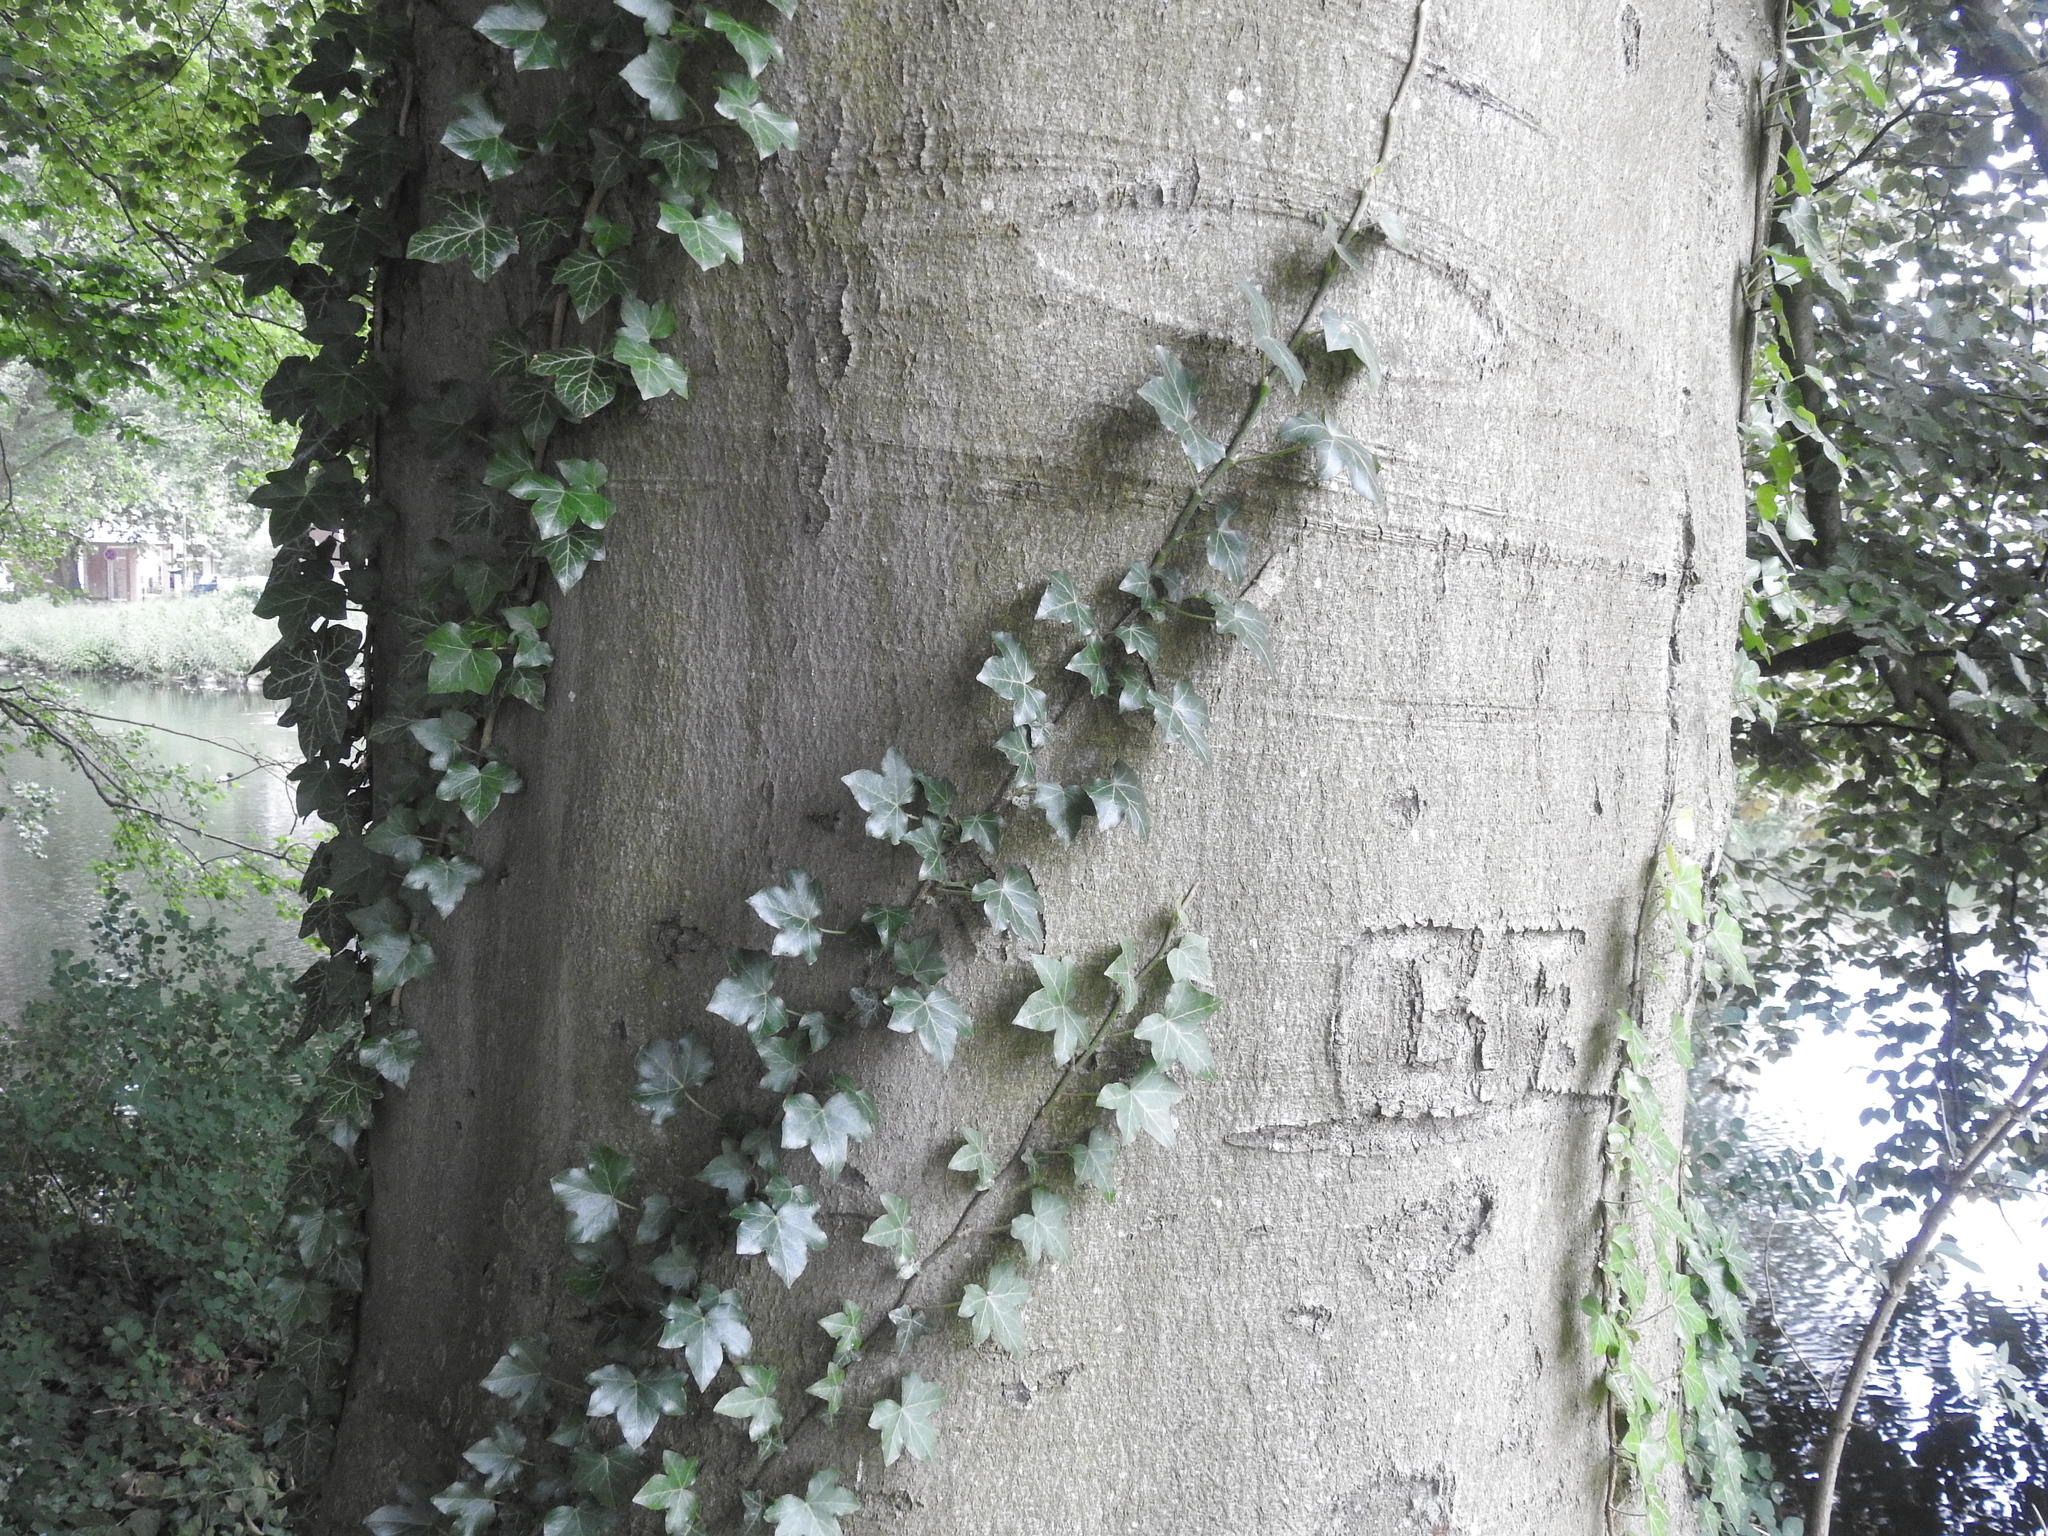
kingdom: Plantae
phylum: Tracheophyta
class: Magnoliopsida
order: Apiales
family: Araliaceae
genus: Hedera
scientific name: Hedera helix
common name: Ivy
